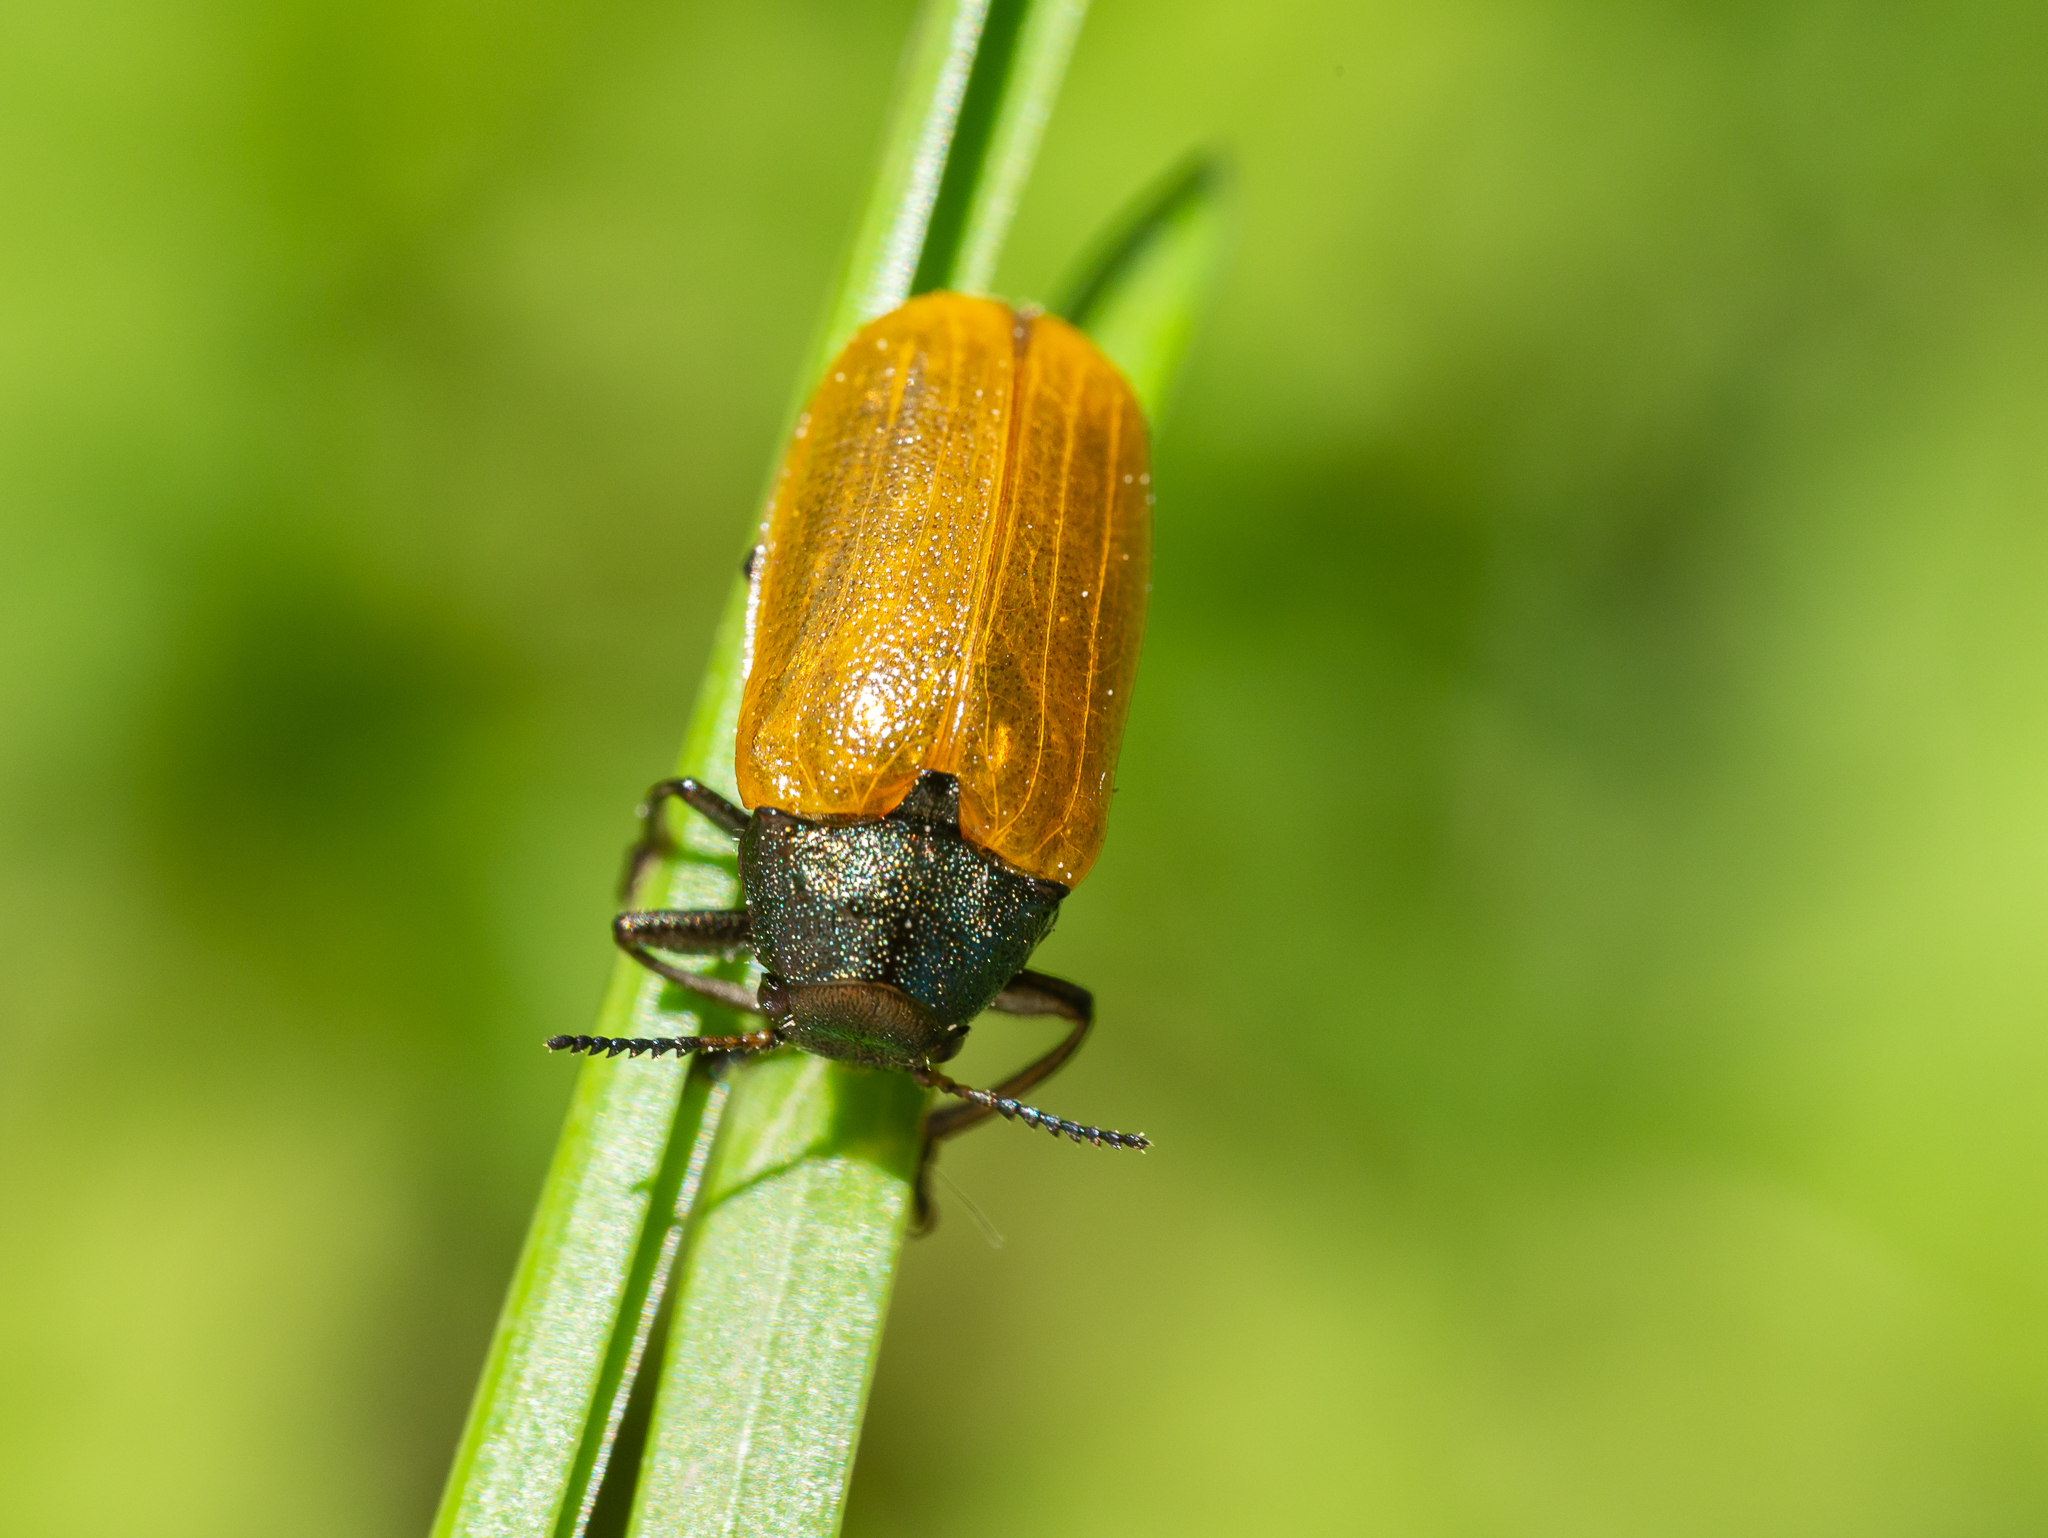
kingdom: Animalia
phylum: Arthropoda
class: Insecta
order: Coleoptera
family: Chrysomelidae
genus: Labidostomis
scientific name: Labidostomis longimana
